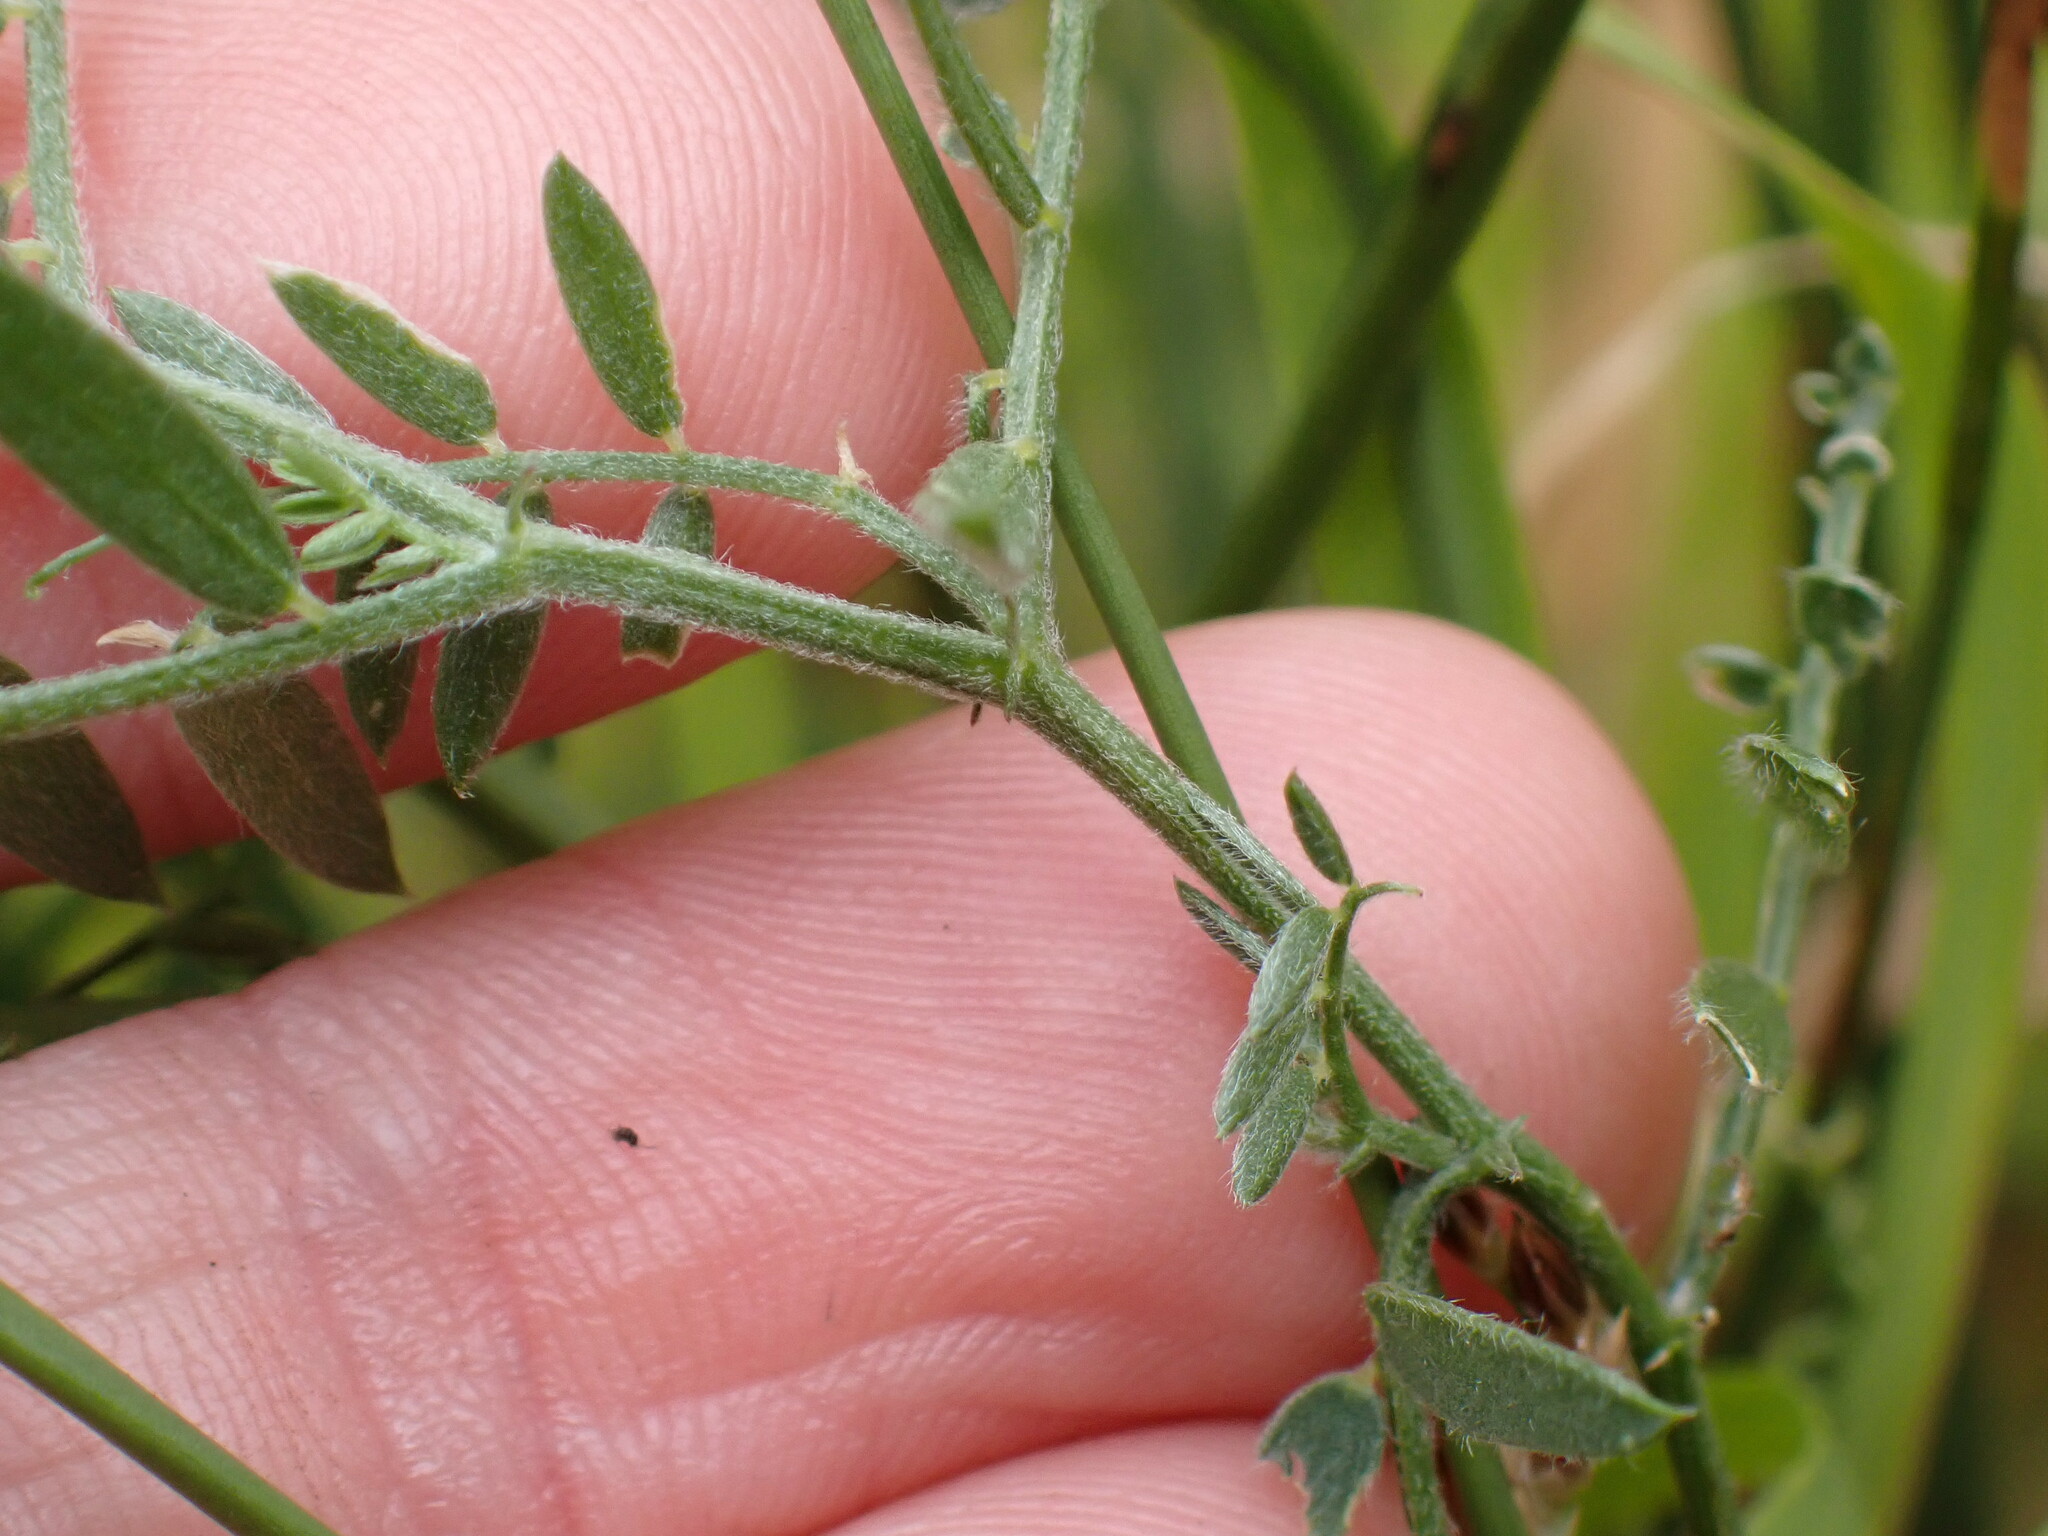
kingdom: Plantae
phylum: Tracheophyta
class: Magnoliopsida
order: Fabales
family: Fabaceae
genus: Vicia
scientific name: Vicia cracca
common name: Bird vetch
